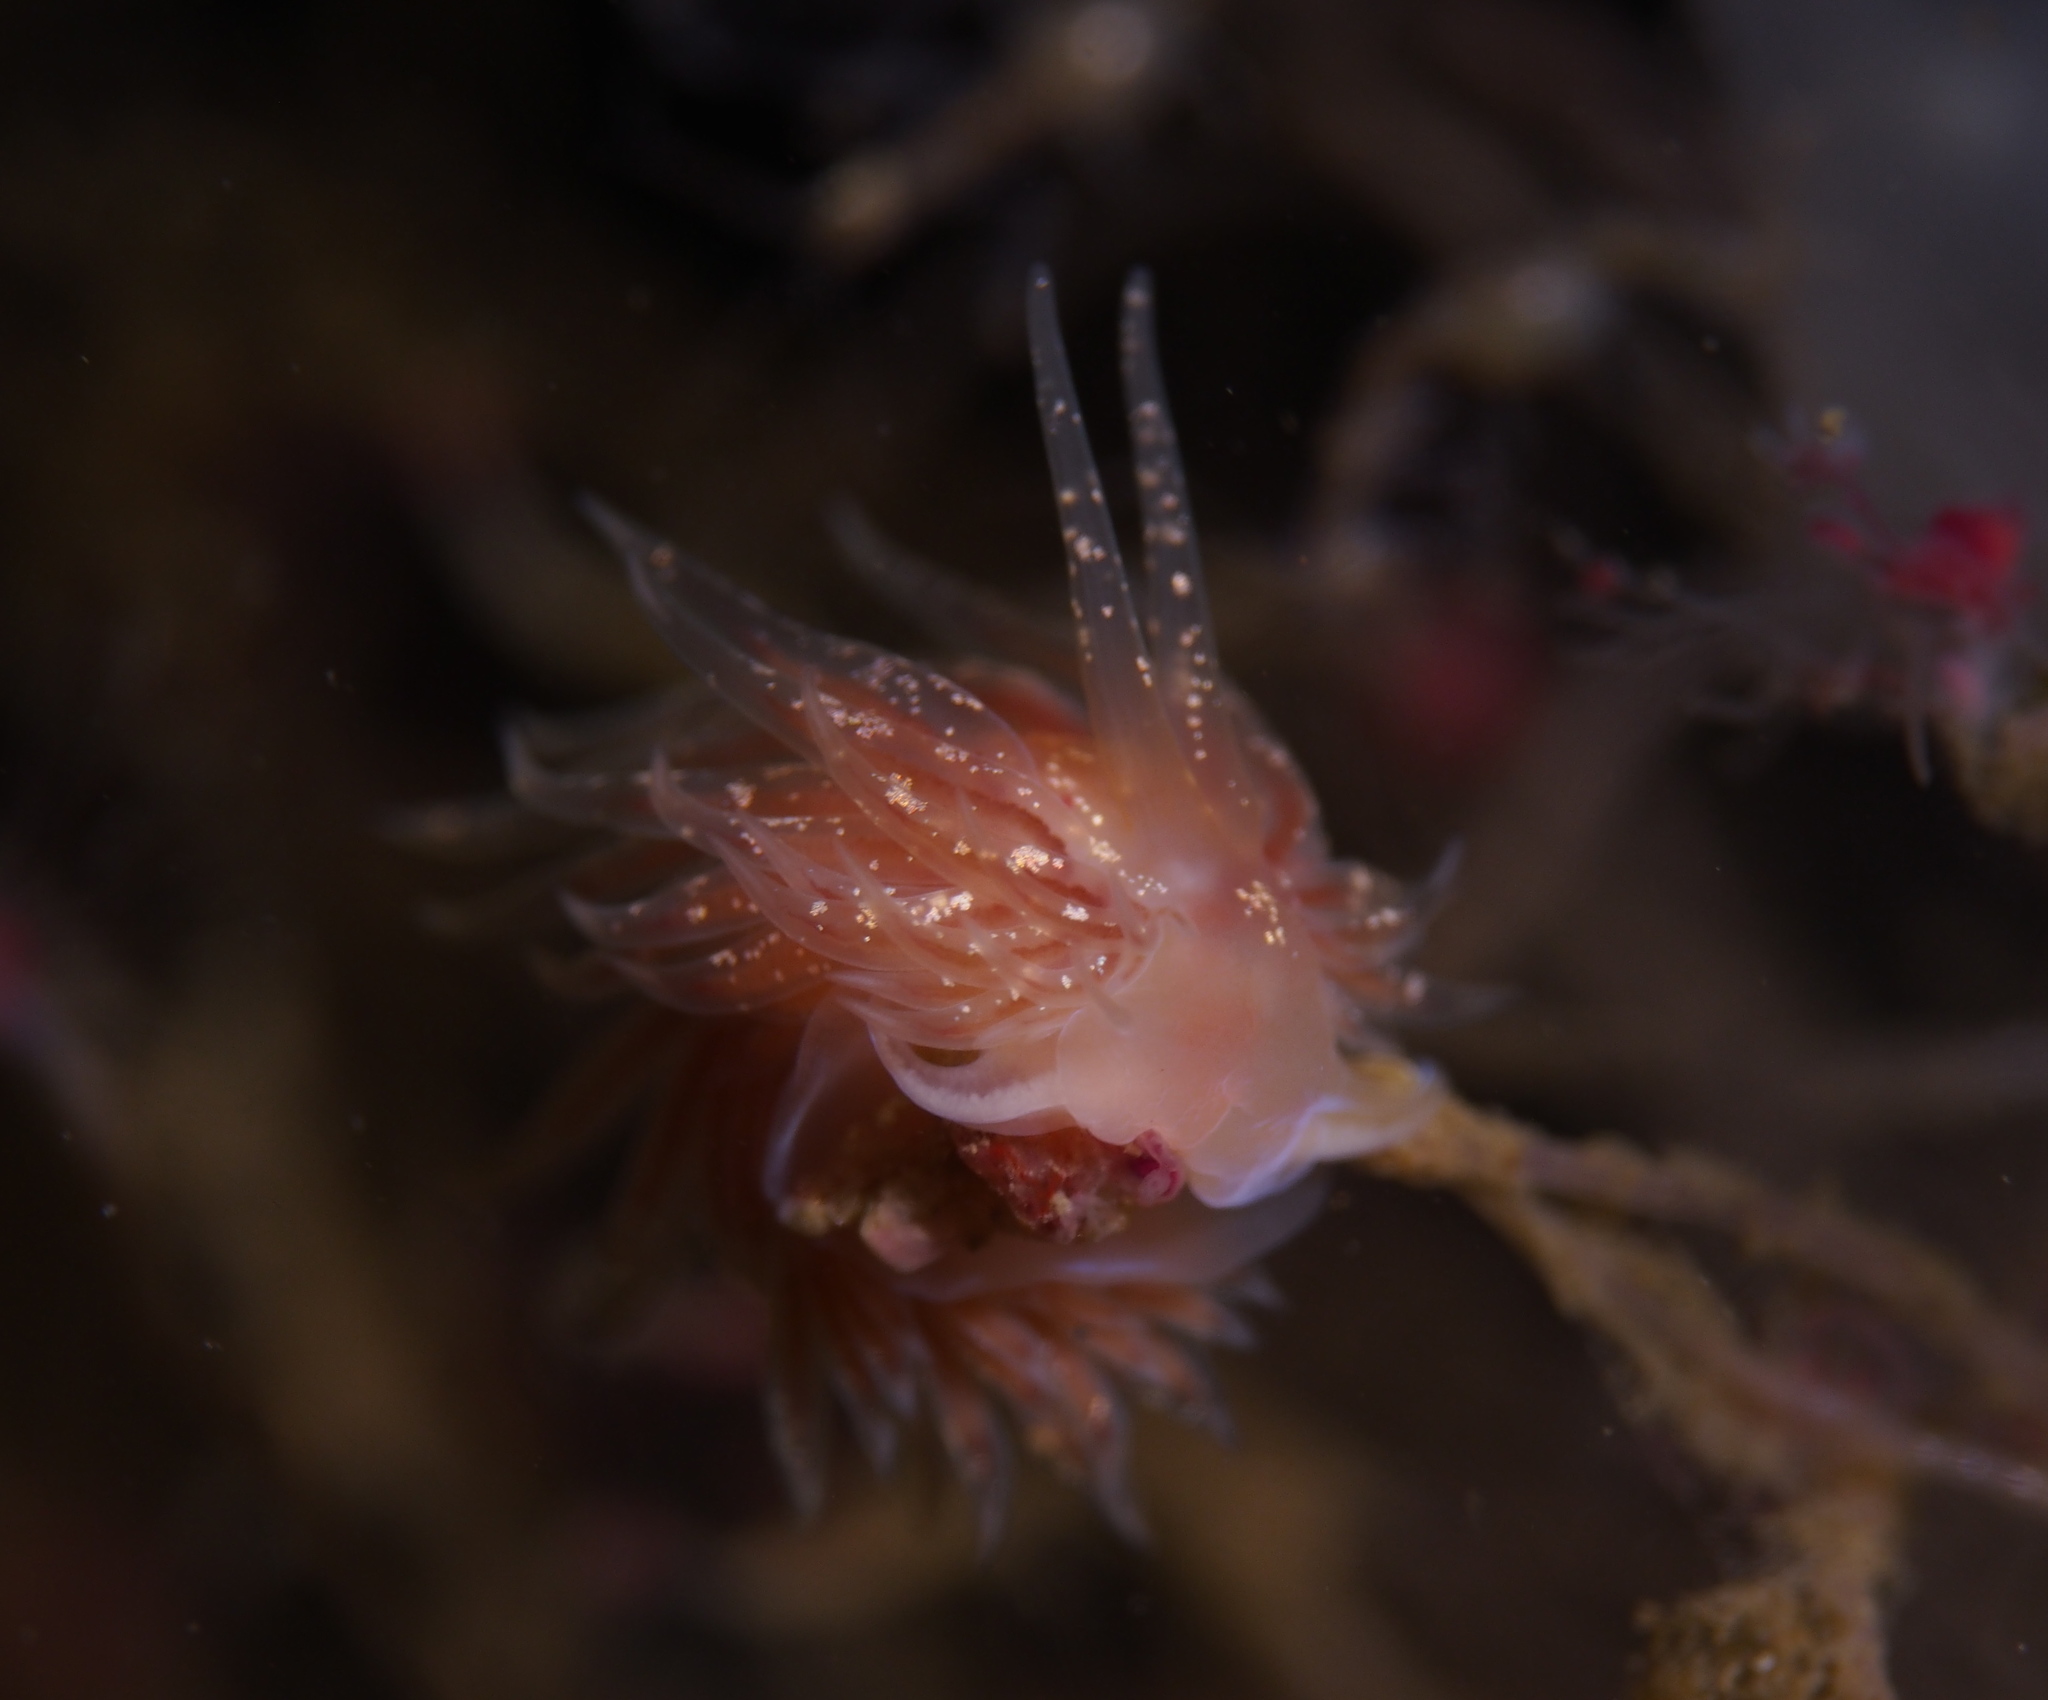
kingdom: Animalia
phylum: Mollusca
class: Gastropoda
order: Nudibranchia
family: Cumanotidae
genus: Cumanotus
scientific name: Cumanotus beaumonti
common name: Polyp aeolis
